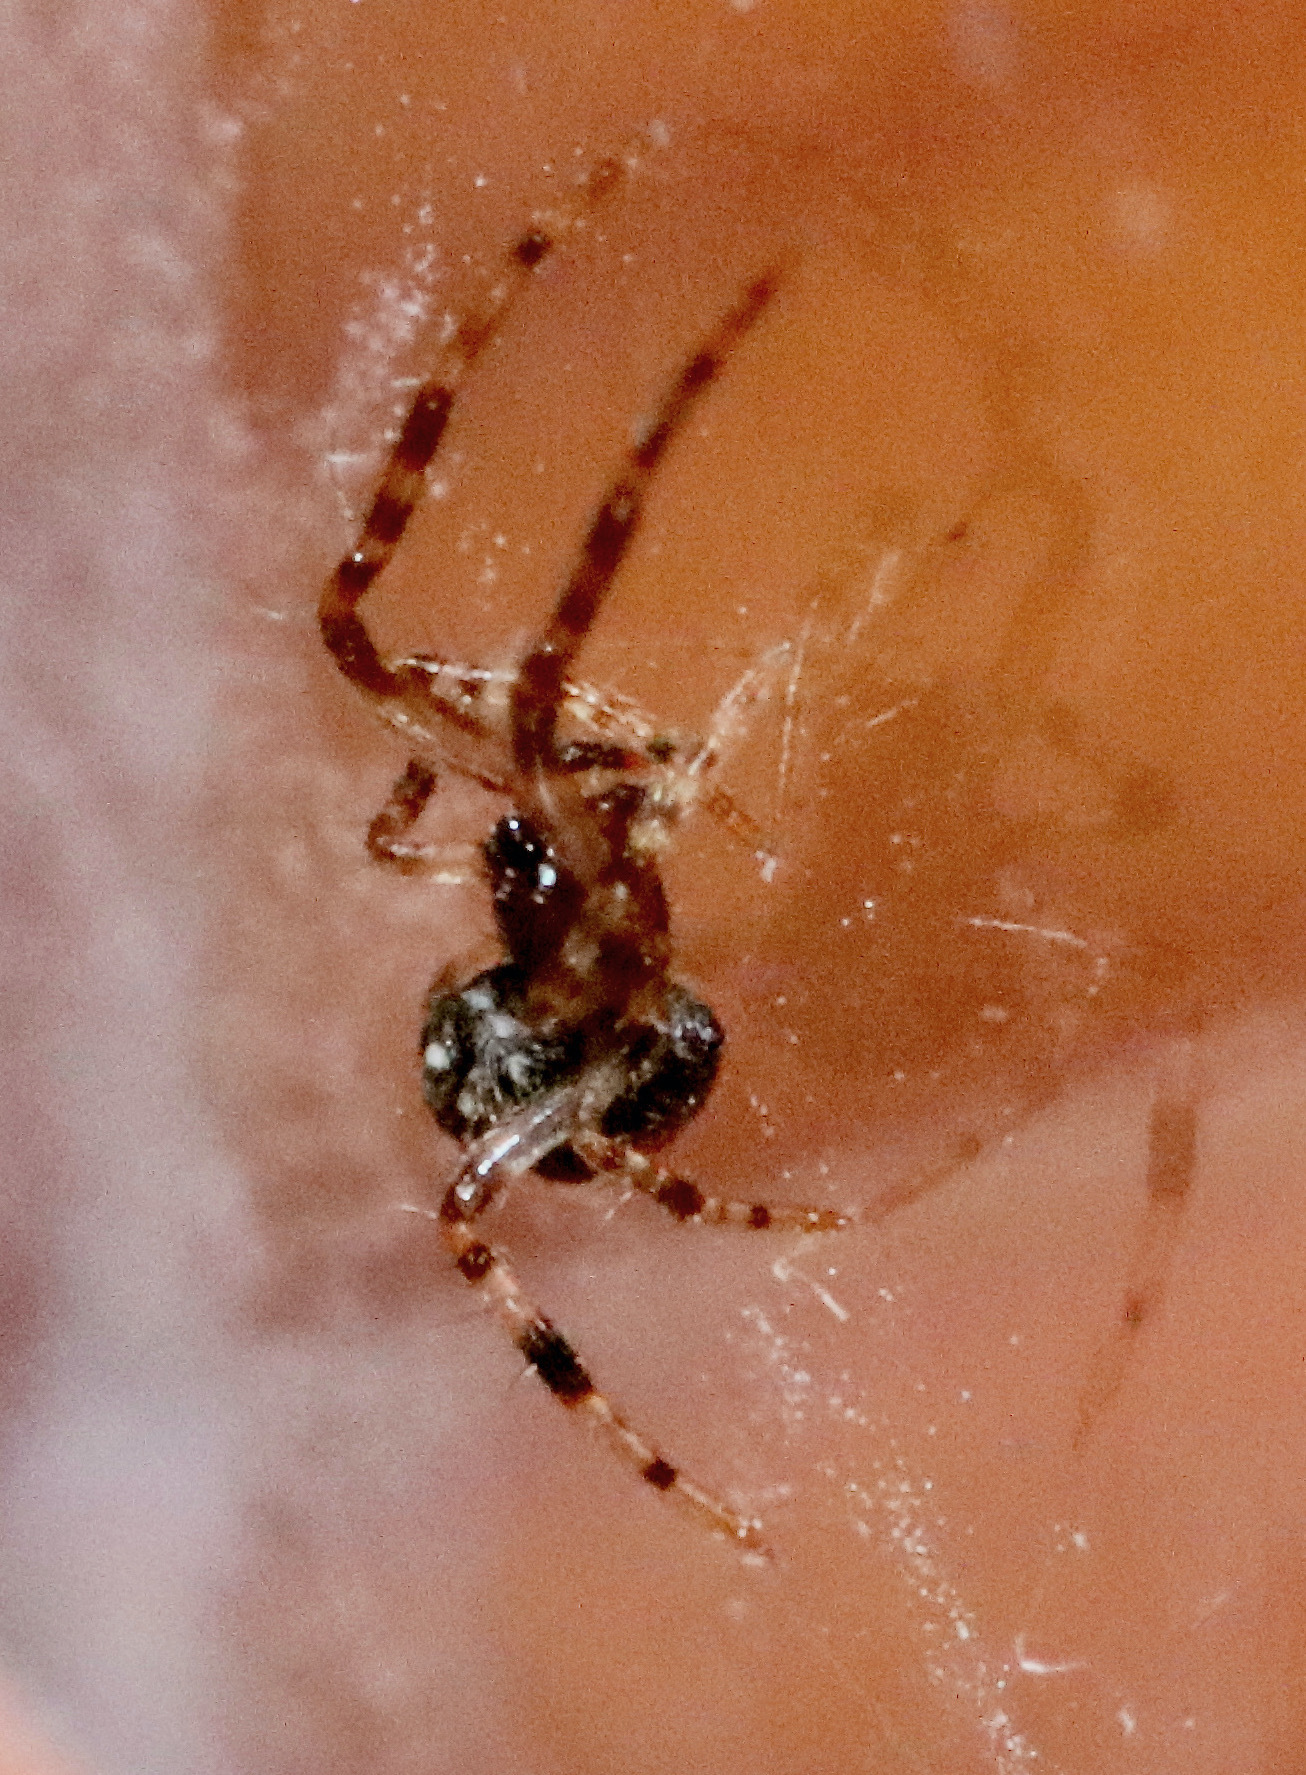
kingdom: Animalia
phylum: Arthropoda
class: Arachnida
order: Araneae
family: Theridiidae
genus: Steatoda
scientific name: Steatoda triangulosa
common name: Triangulate bud spider
